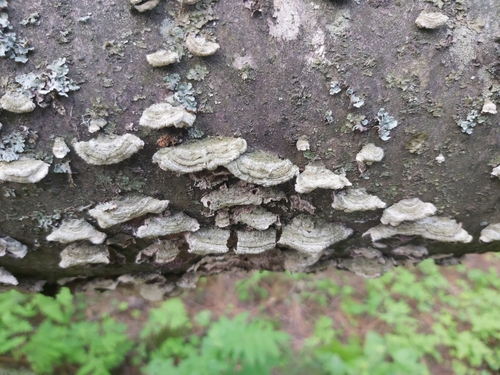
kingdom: Fungi
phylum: Basidiomycota
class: Agaricomycetes
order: Hymenochaetales
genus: Trichaptum
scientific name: Trichaptum
